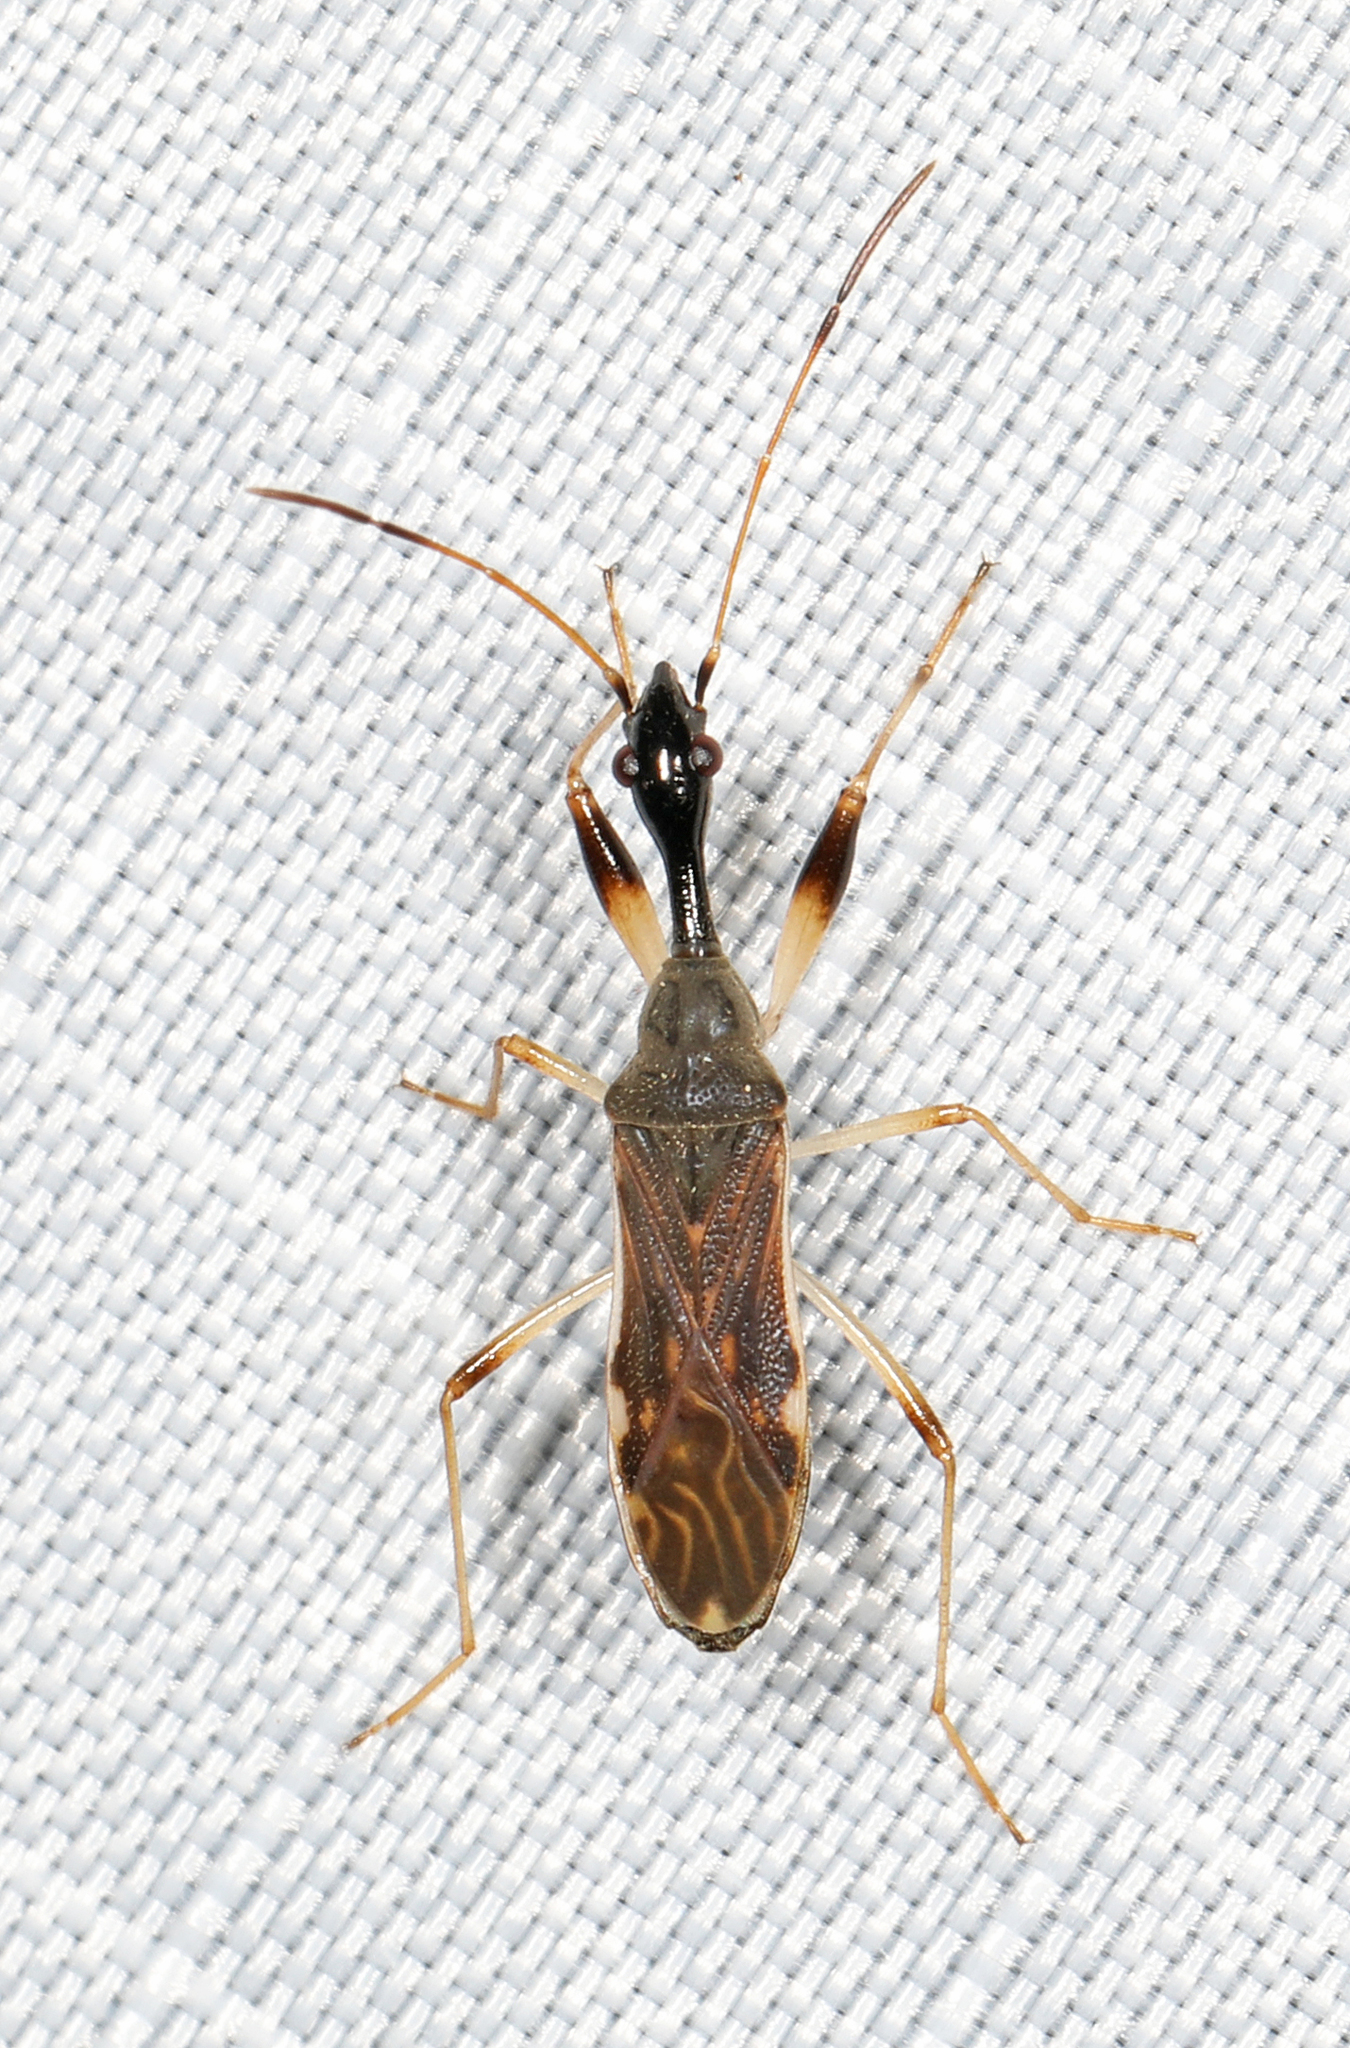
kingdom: Animalia
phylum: Arthropoda
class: Insecta
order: Hemiptera
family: Rhyparochromidae
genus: Myodocha
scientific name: Myodocha serripes
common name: Long-necked seed bug
